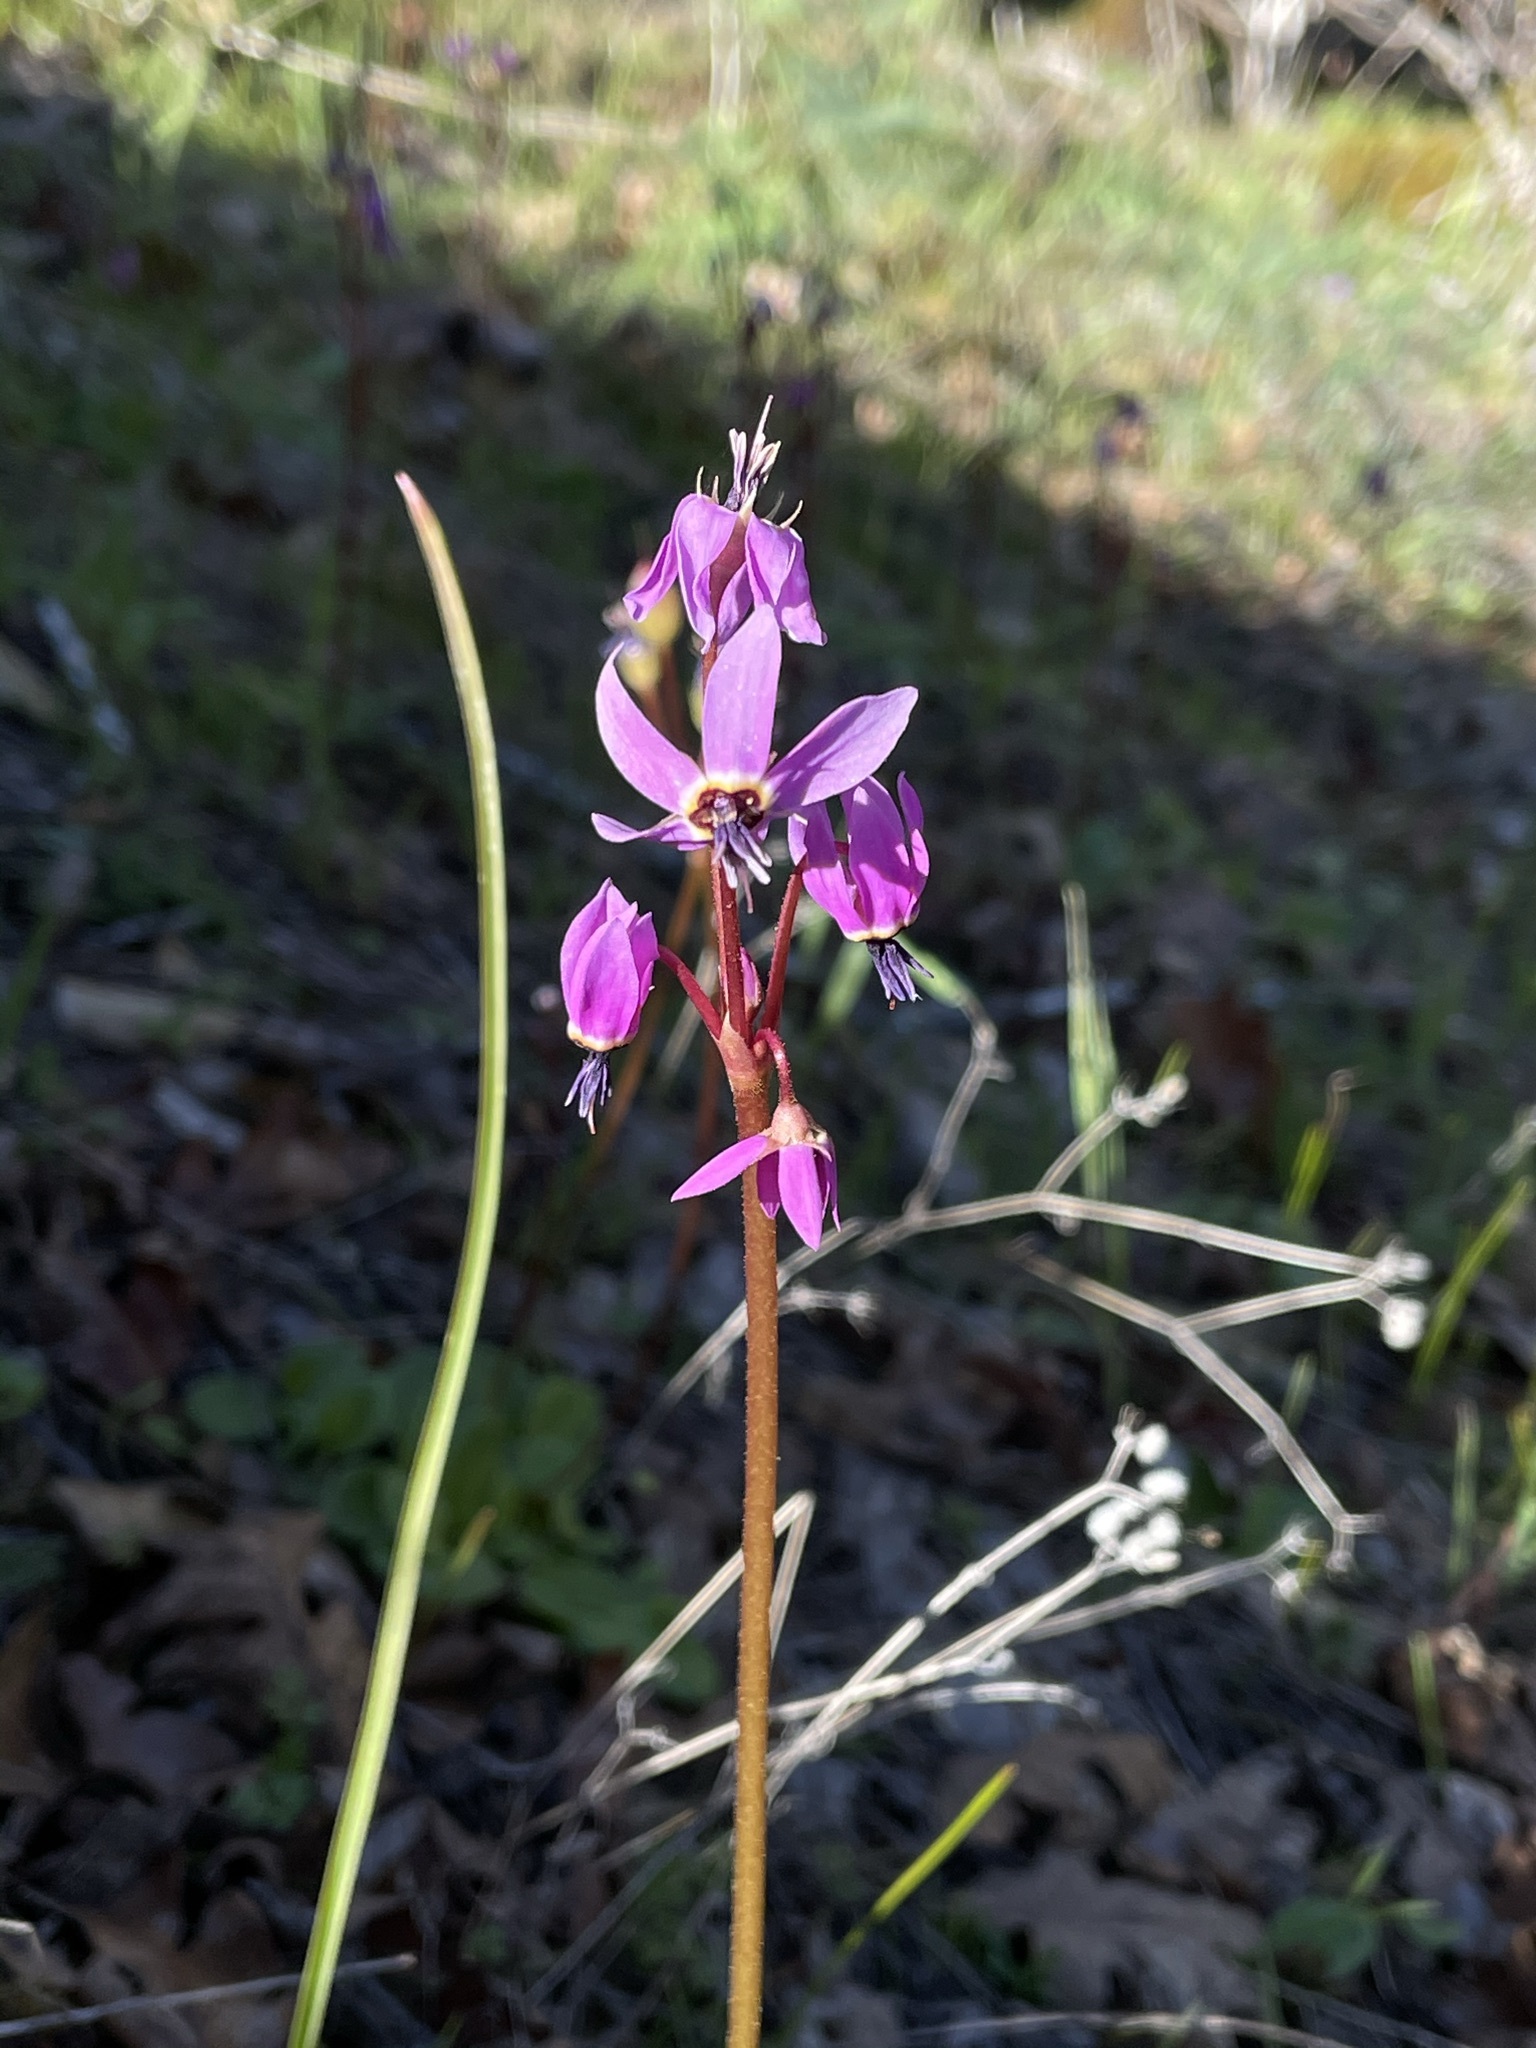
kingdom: Plantae
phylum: Tracheophyta
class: Magnoliopsida
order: Ericales
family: Primulaceae
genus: Dodecatheon
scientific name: Dodecatheon hendersonii
